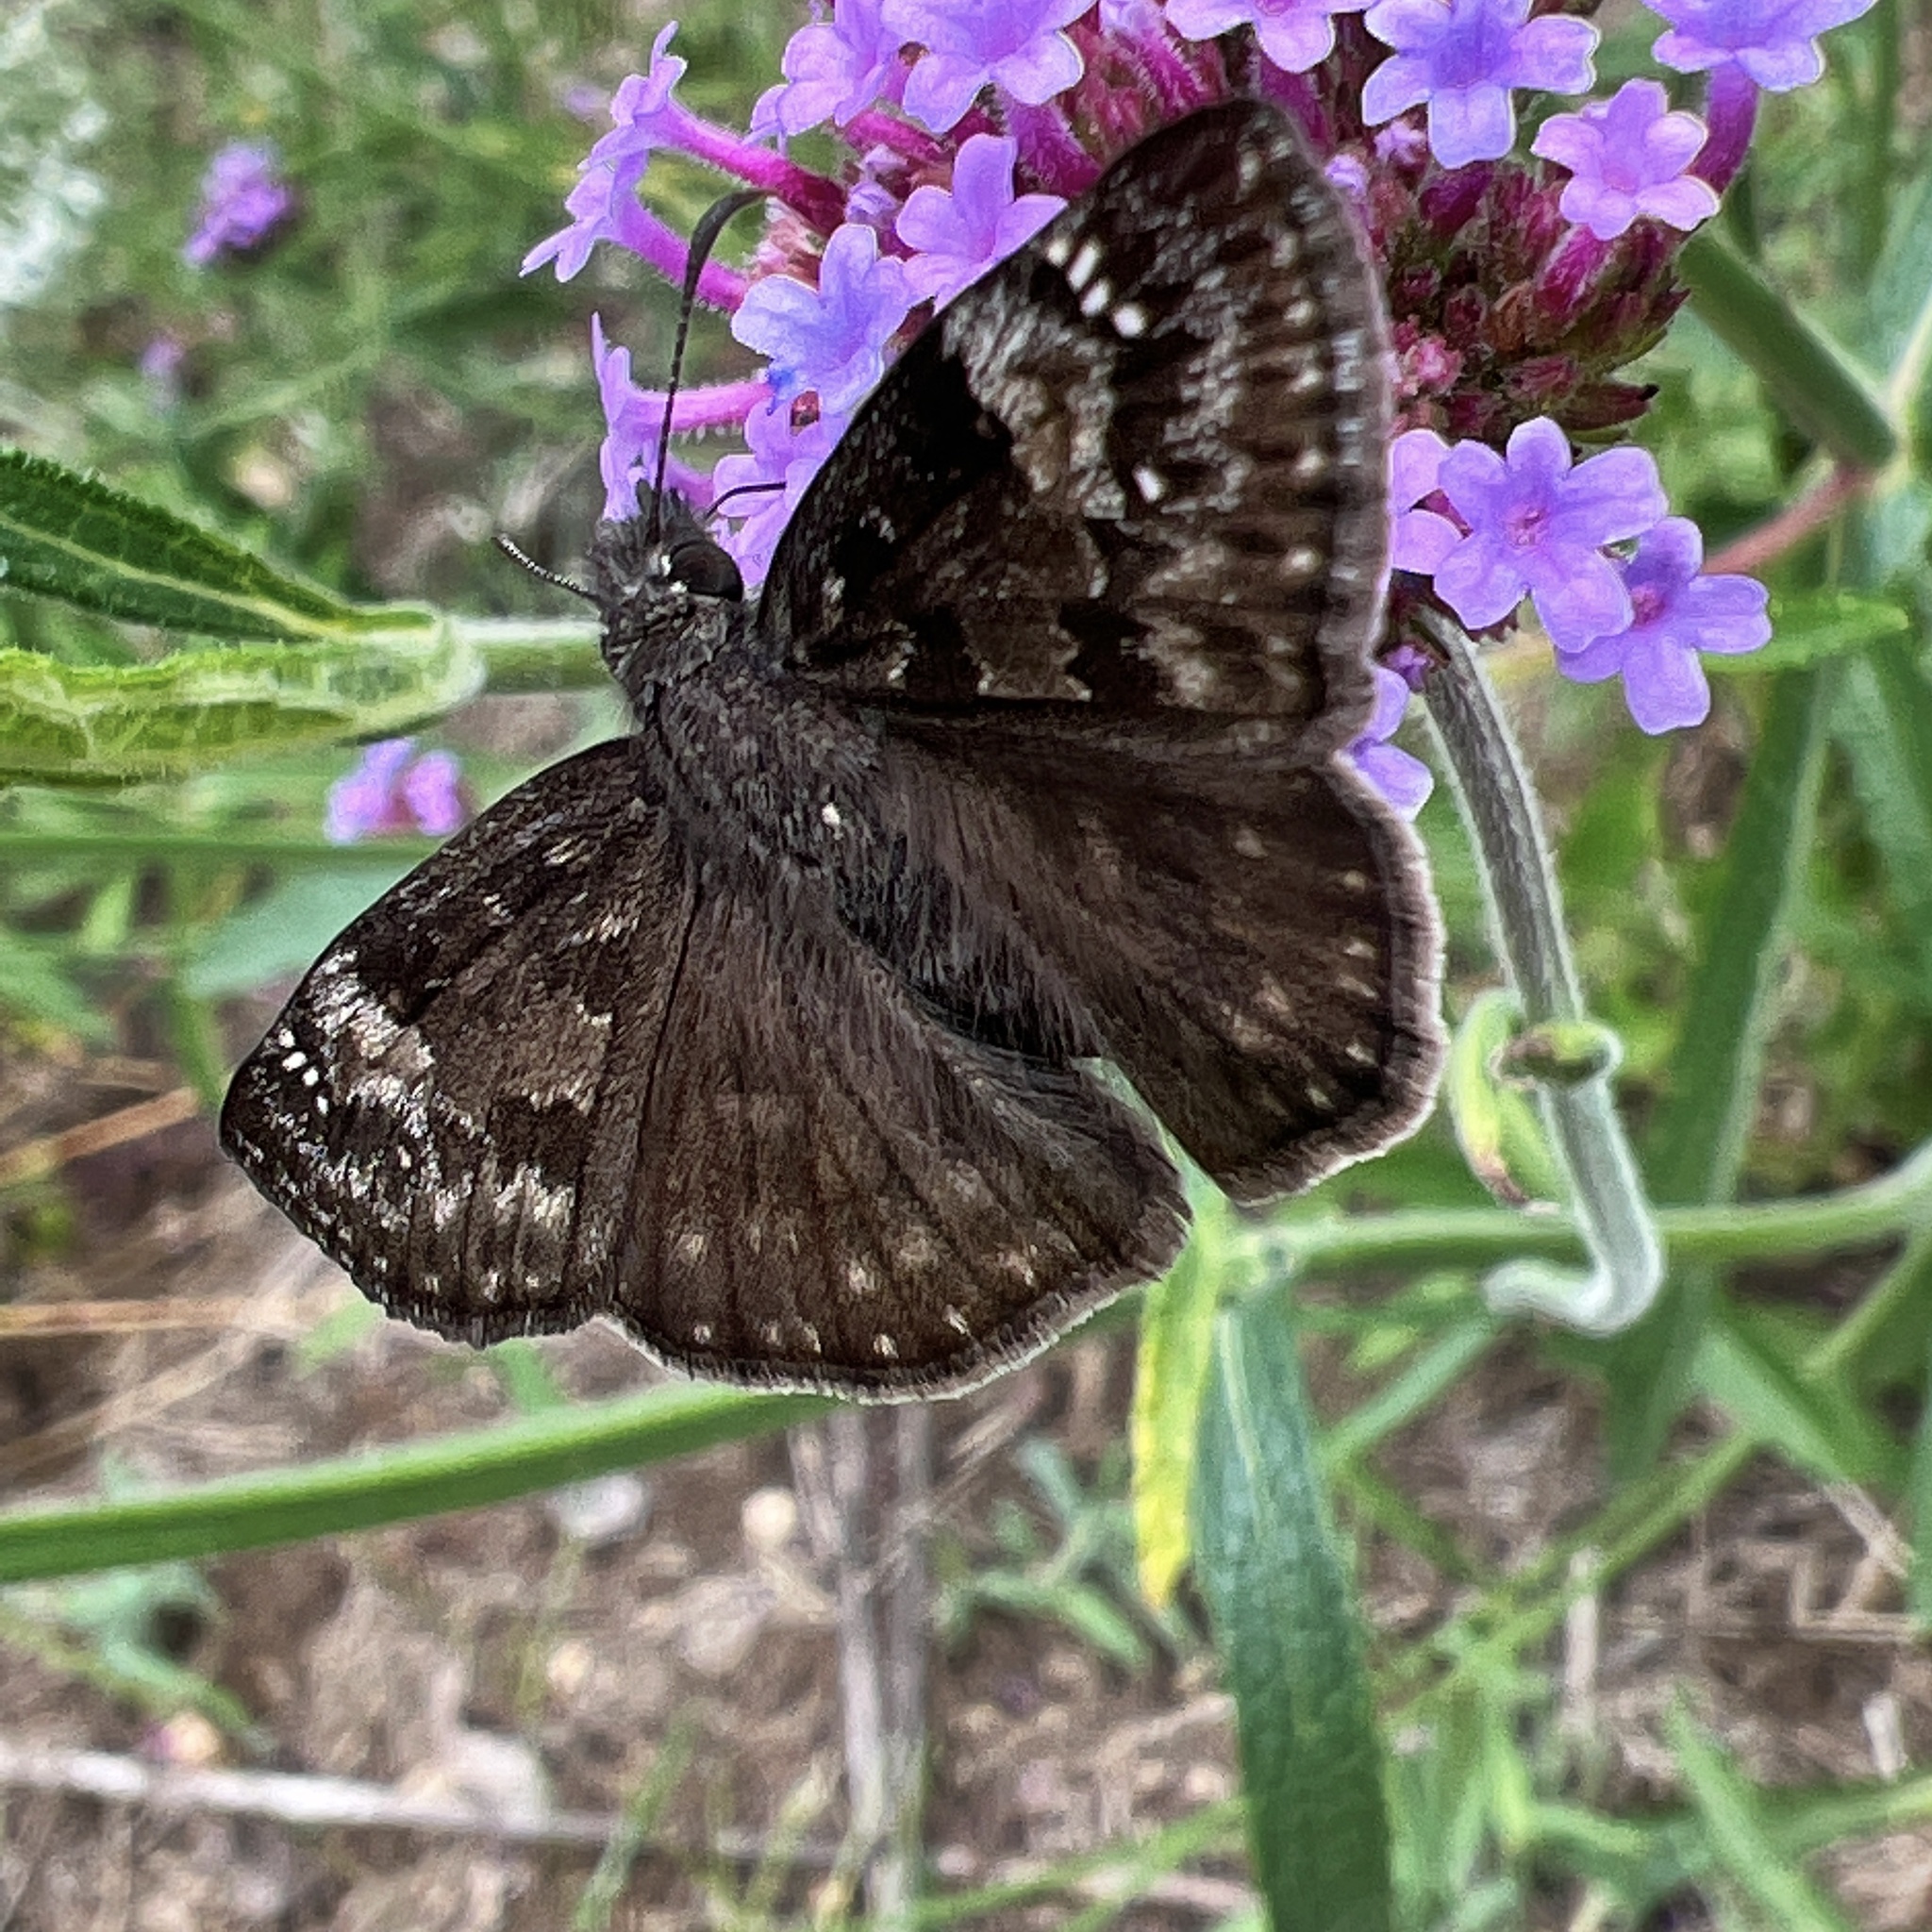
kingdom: Animalia
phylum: Arthropoda
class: Insecta
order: Lepidoptera
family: Hesperiidae
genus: Erynnis
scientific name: Erynnis baptisiae
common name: Wild indigo duskywing
